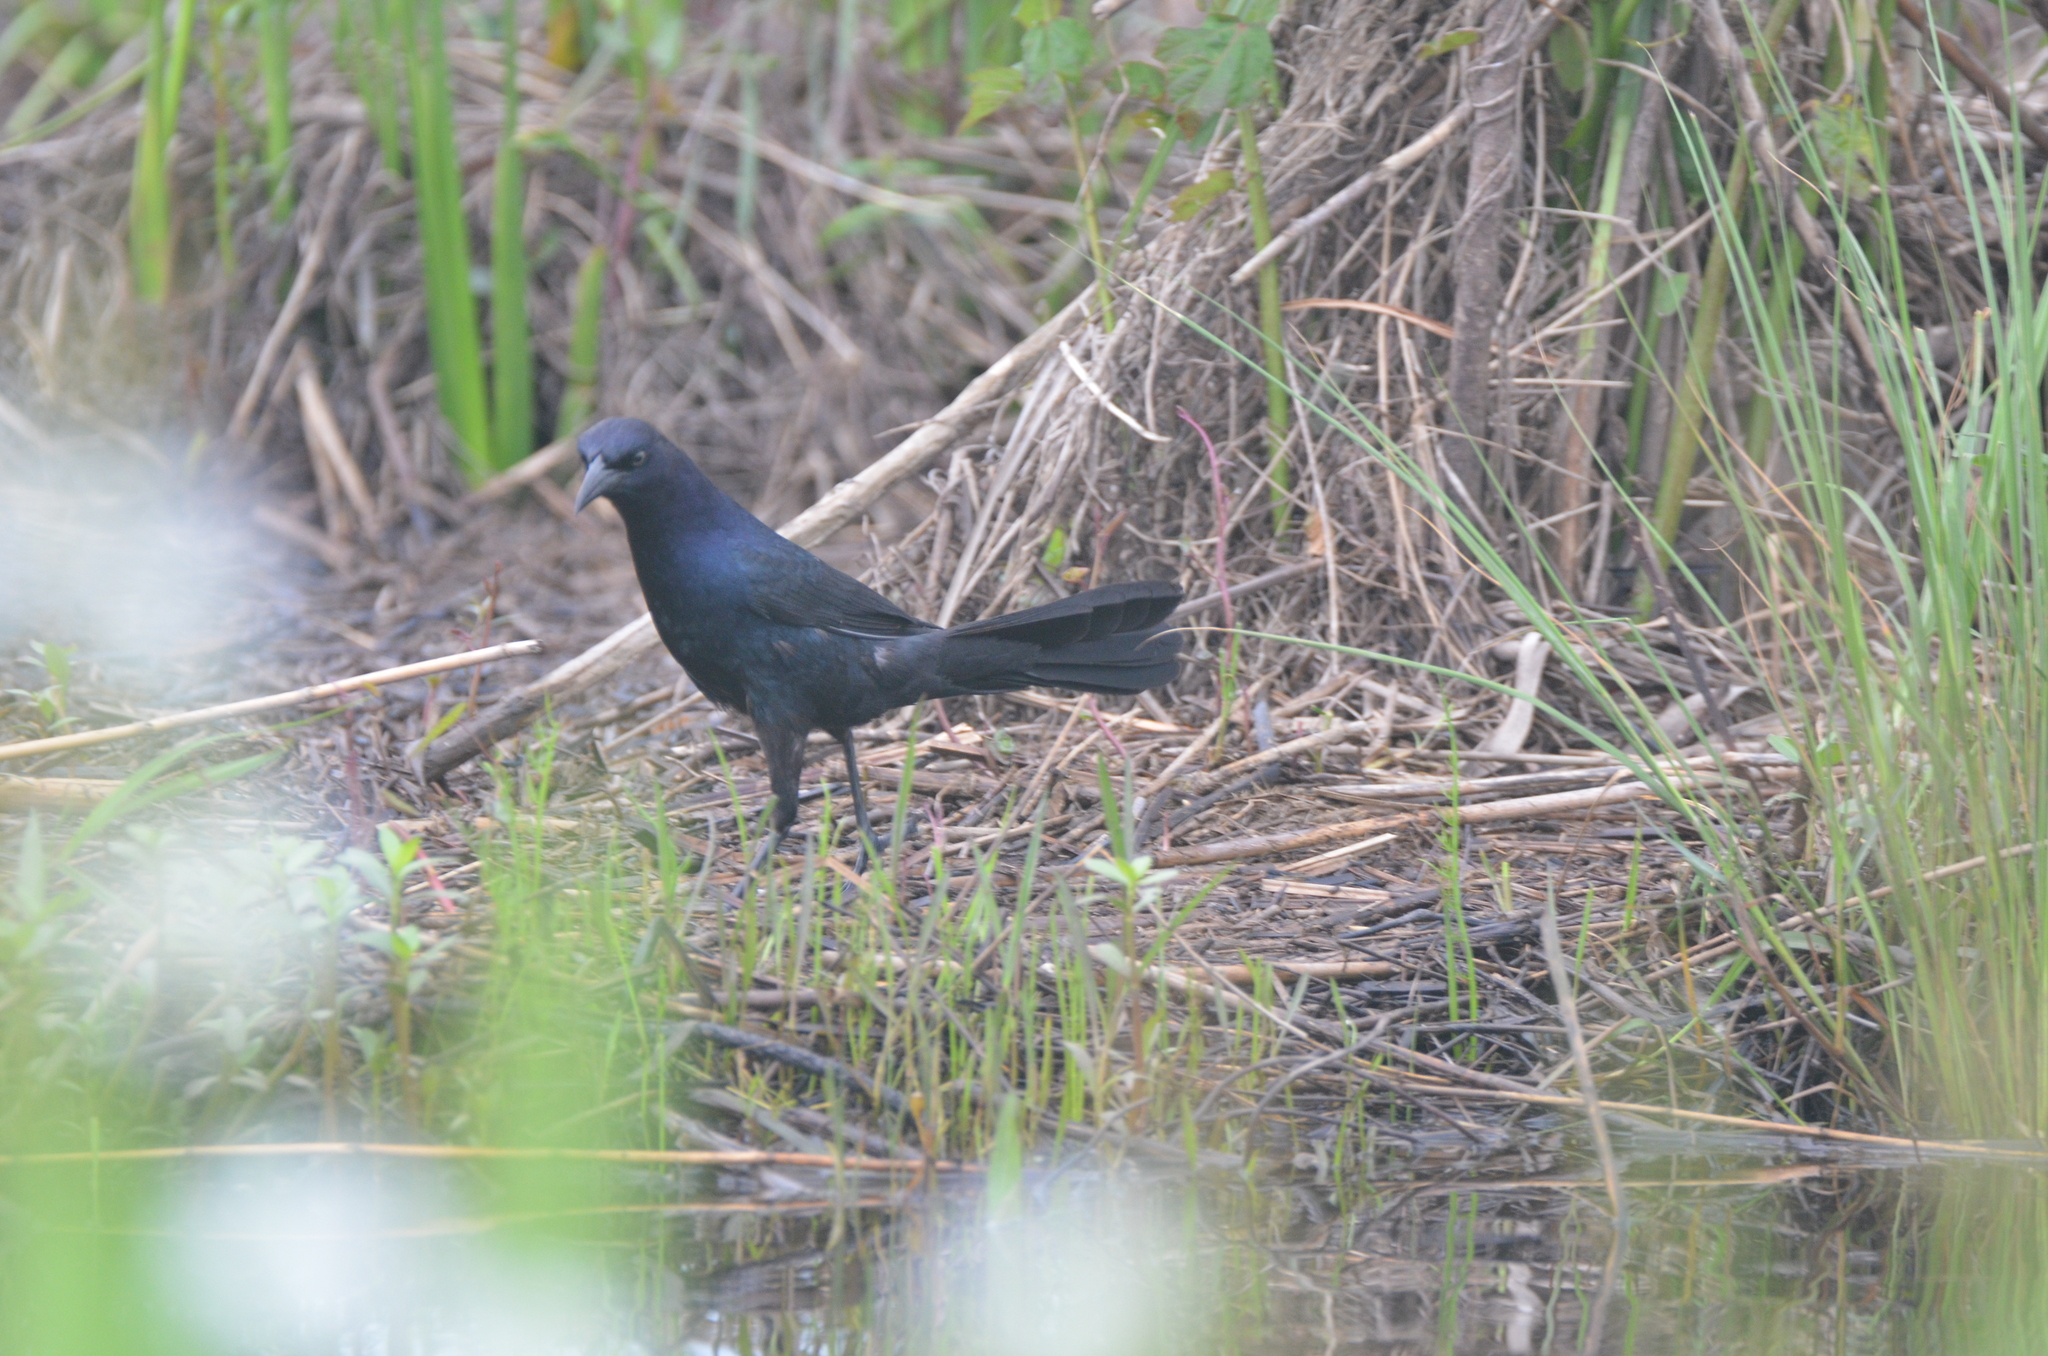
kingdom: Animalia
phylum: Chordata
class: Aves
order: Passeriformes
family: Icteridae
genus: Quiscalus
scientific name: Quiscalus major
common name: Boat-tailed grackle
